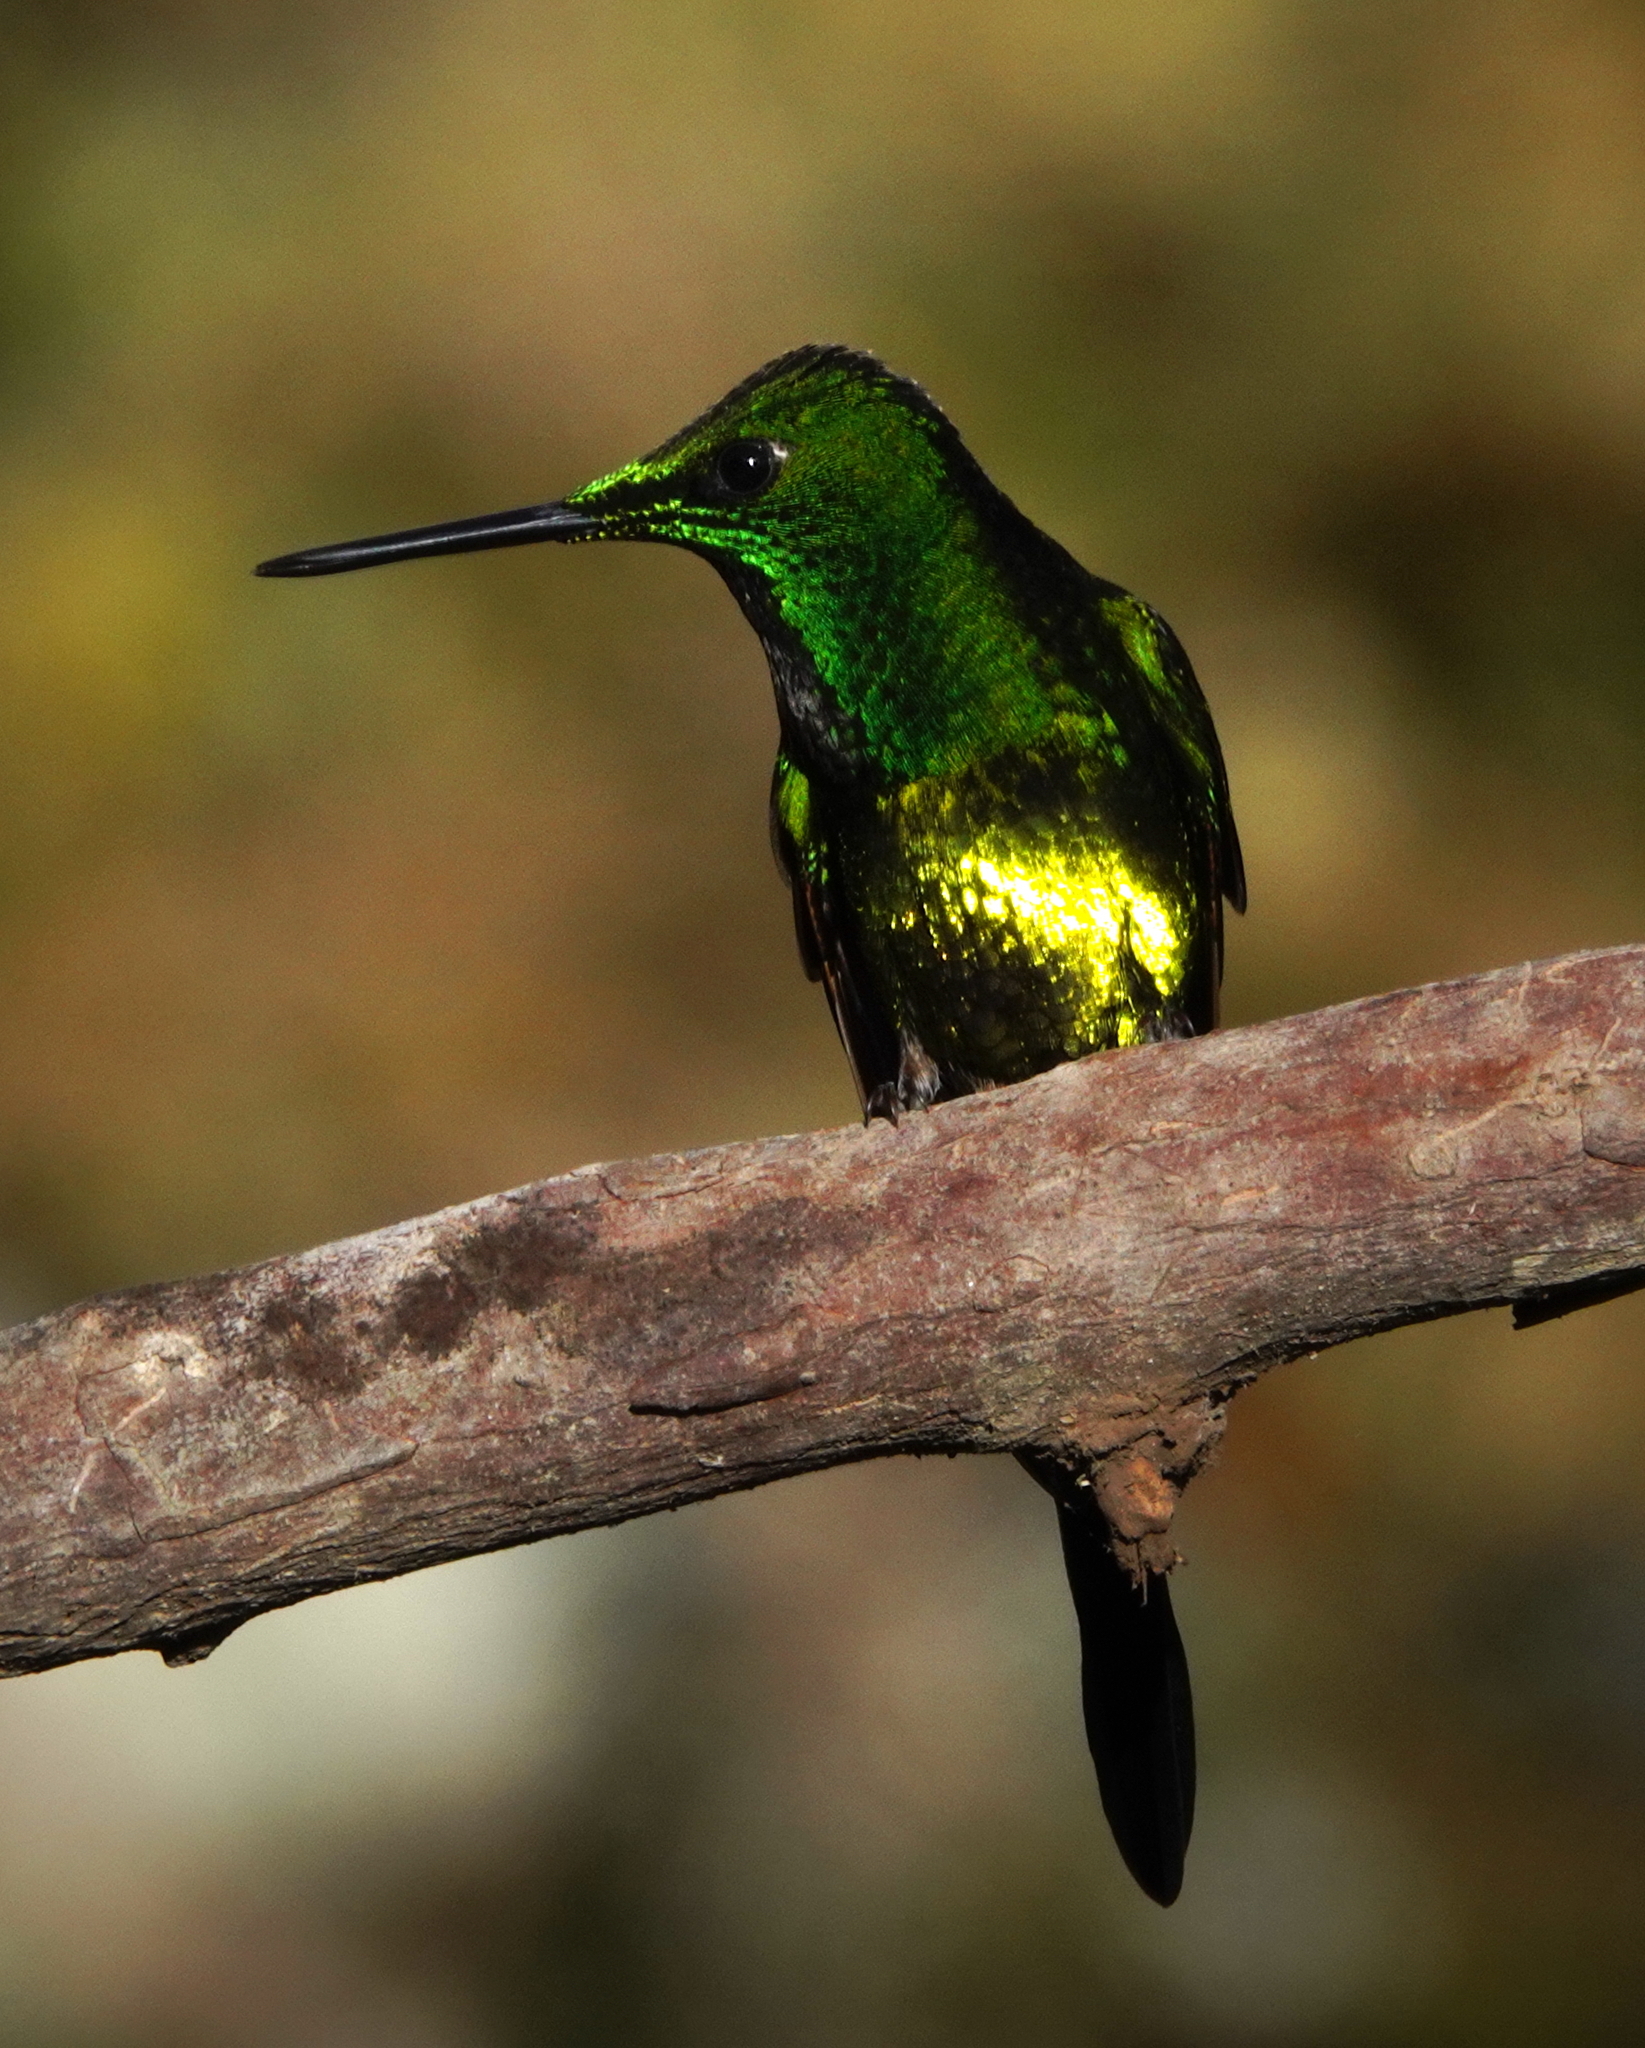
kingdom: Animalia
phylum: Chordata
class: Aves
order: Apodiformes
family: Trochilidae
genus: Heliodoxa
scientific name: Heliodoxa imperatrix
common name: Empress brilliant
